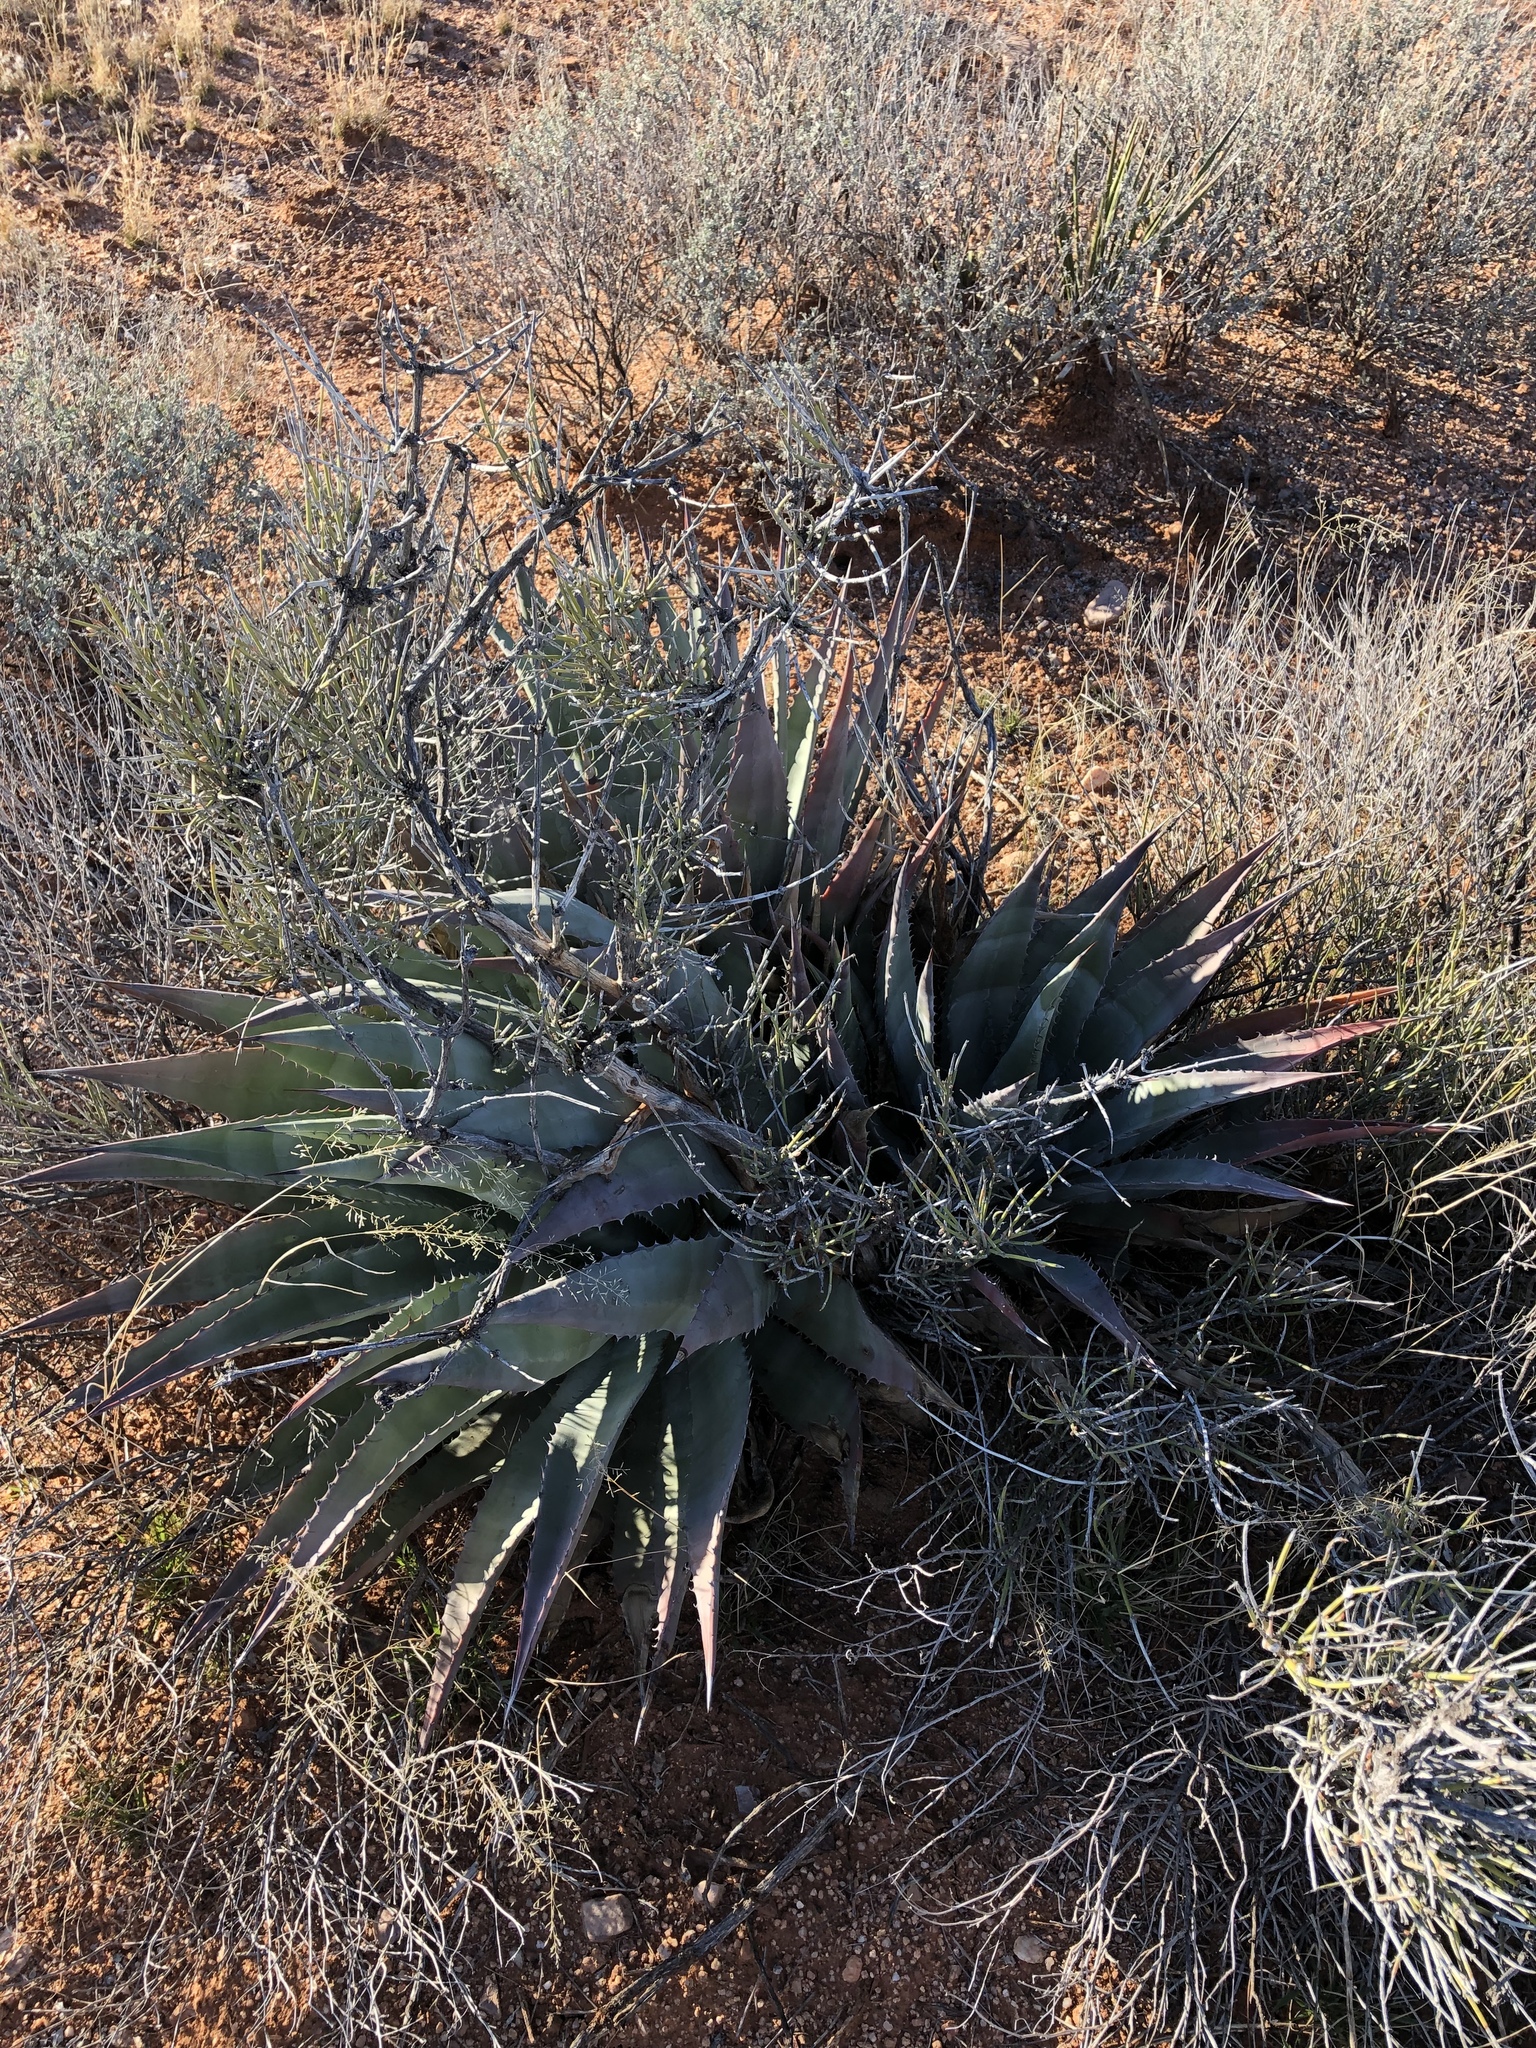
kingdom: Plantae
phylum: Tracheophyta
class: Liliopsida
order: Asparagales
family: Asparagaceae
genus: Agave
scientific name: Agave palmeri
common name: Palmer agave
